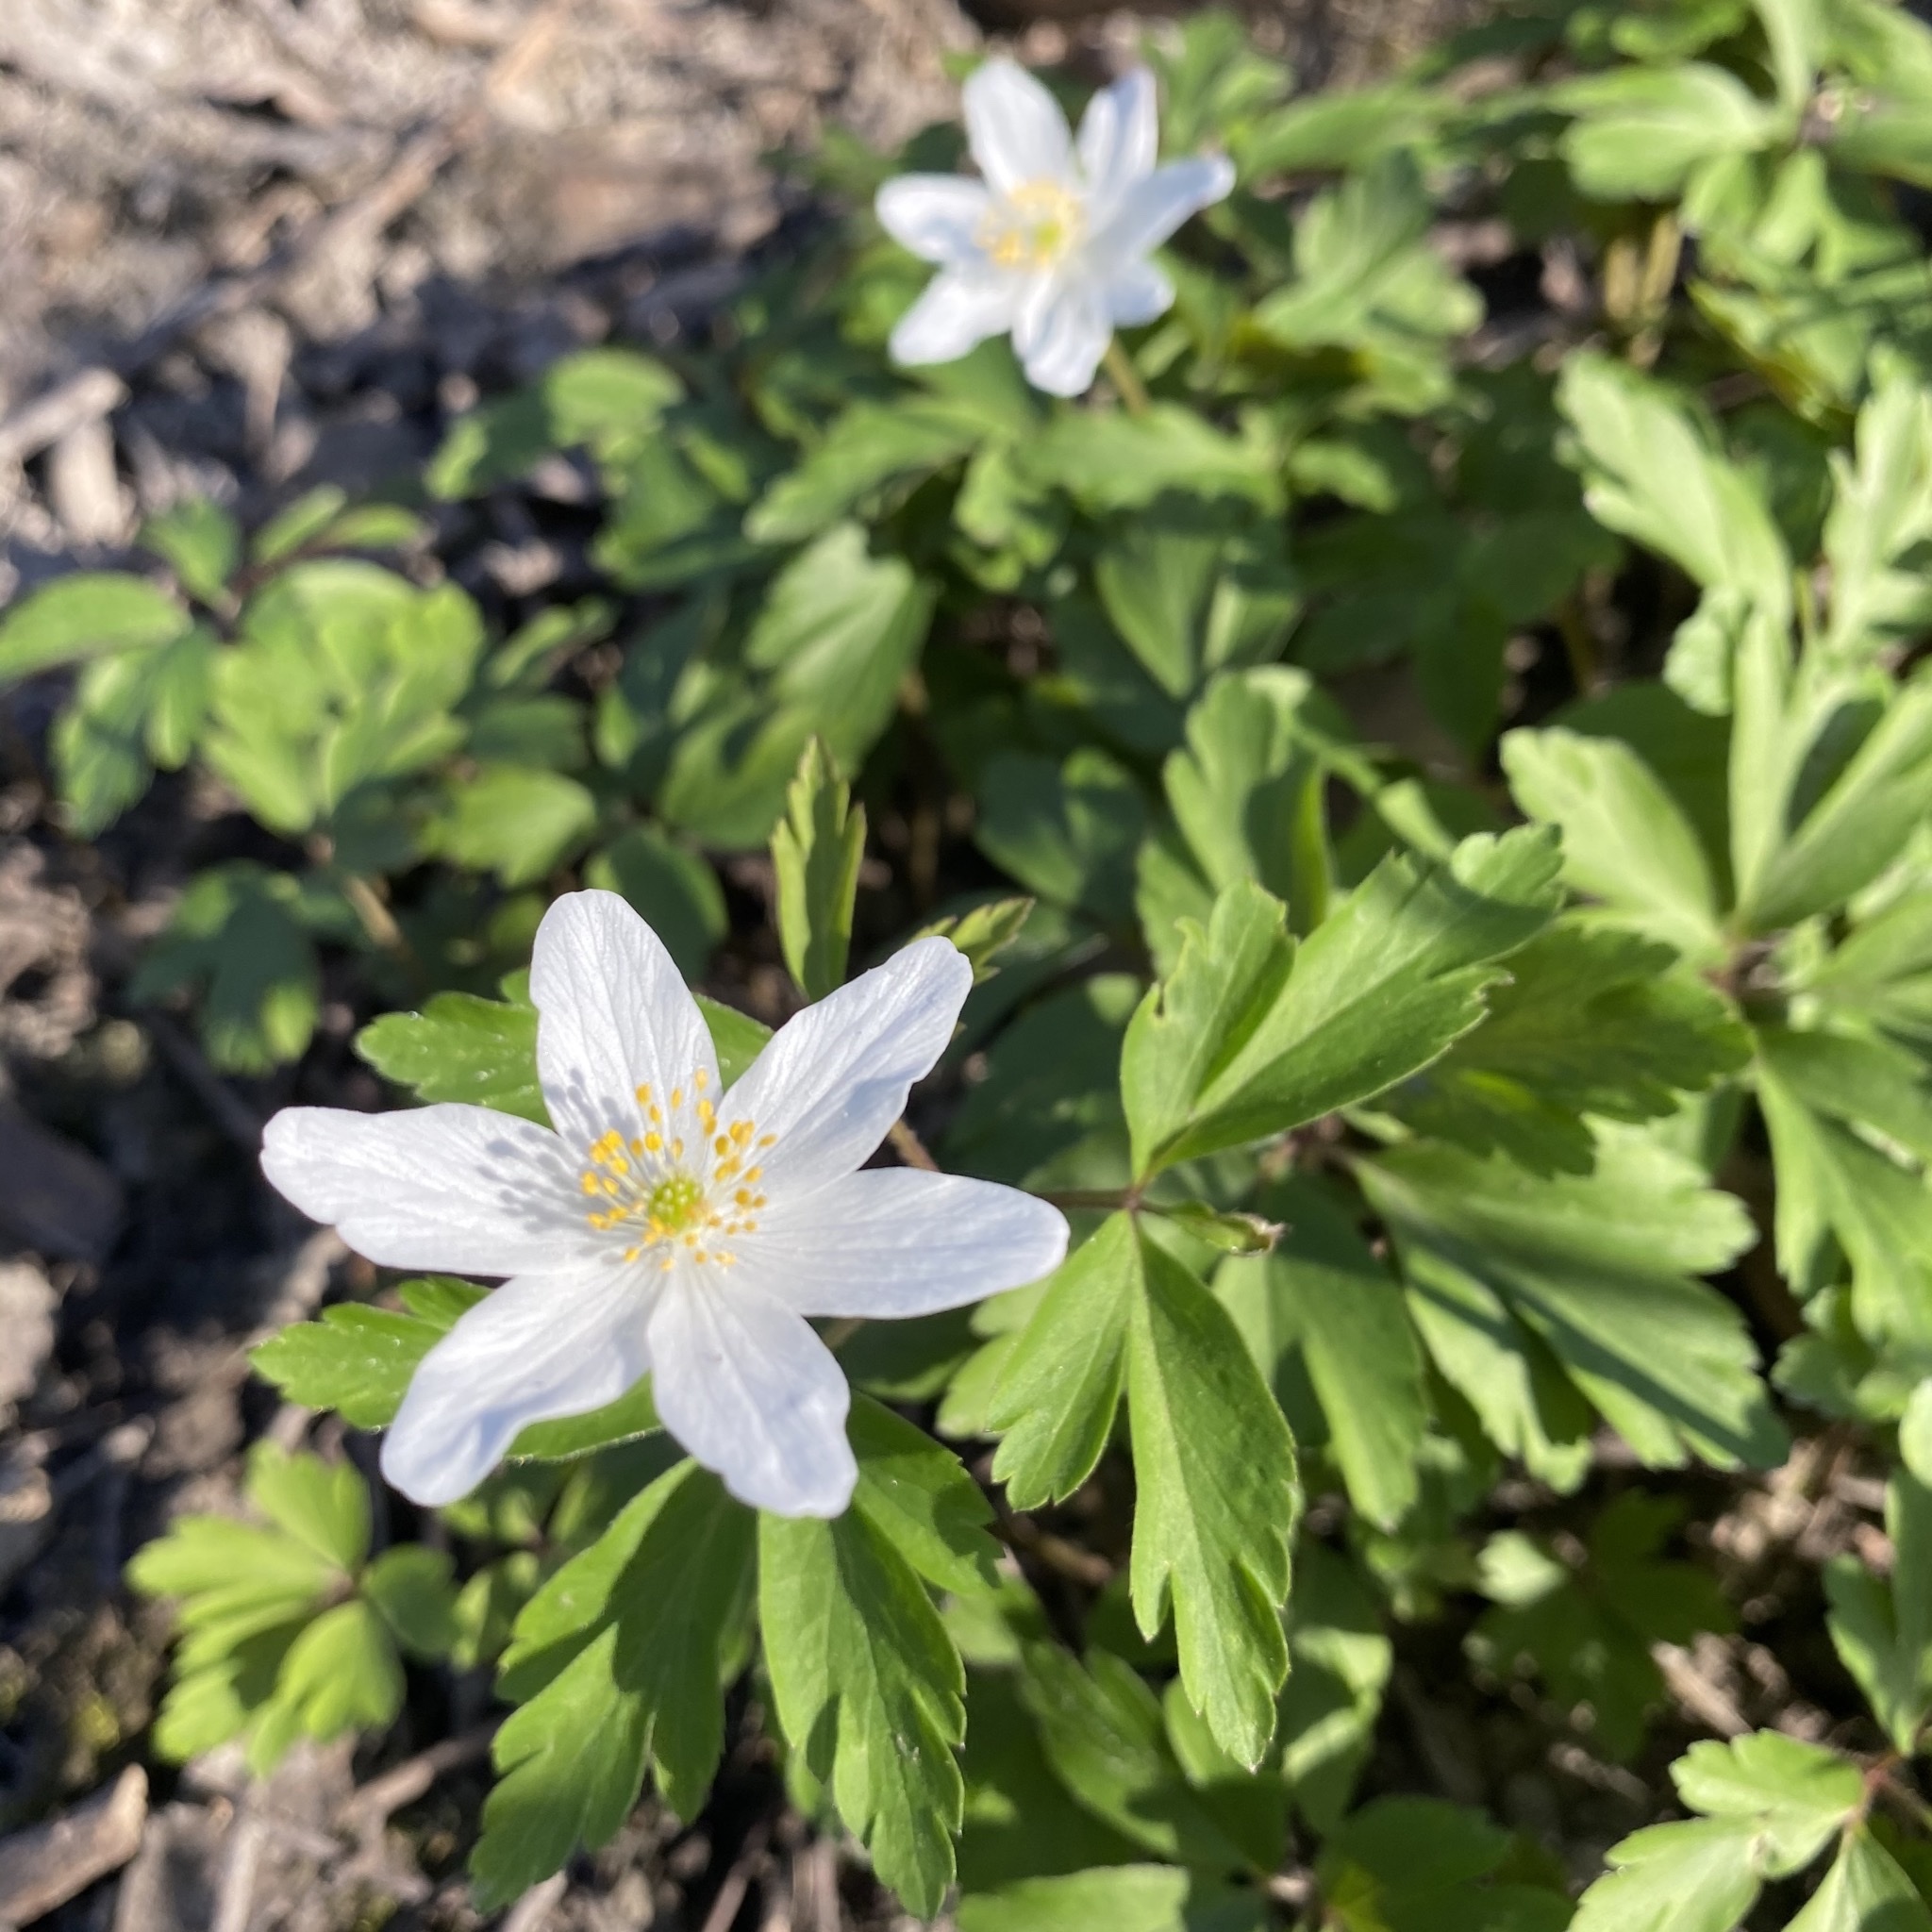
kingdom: Plantae
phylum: Tracheophyta
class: Magnoliopsida
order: Ranunculales
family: Ranunculaceae
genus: Anemone
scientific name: Anemone nemorosa
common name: Wood anemone
